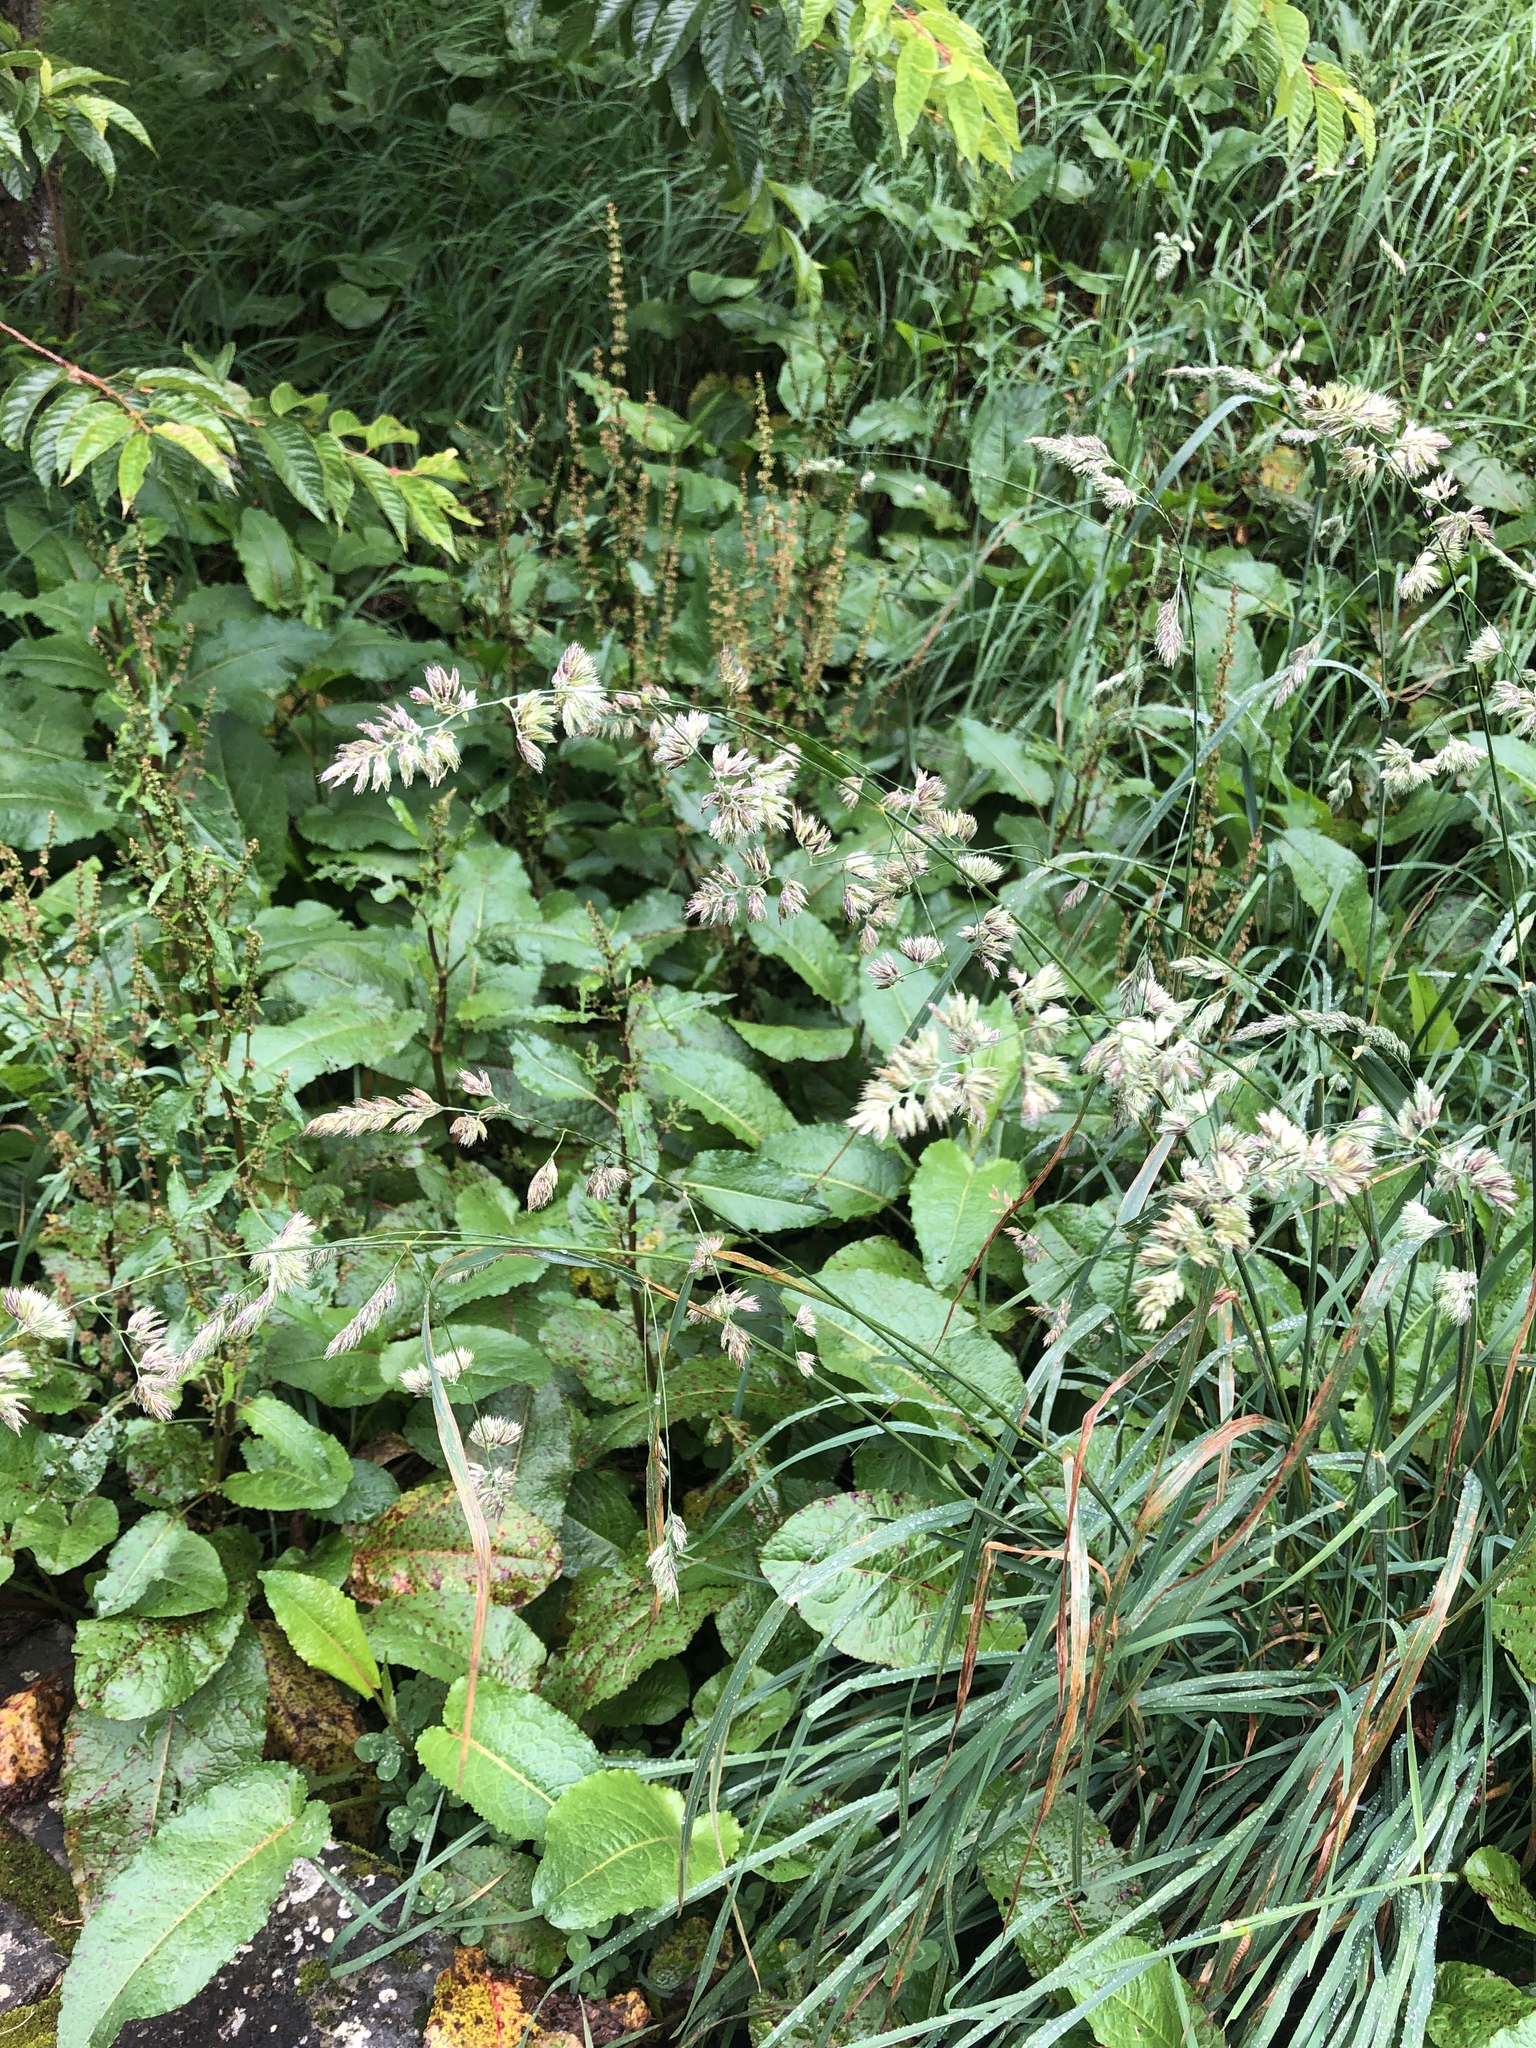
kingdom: Plantae
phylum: Tracheophyta
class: Liliopsida
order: Poales
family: Poaceae
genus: Dactylis
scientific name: Dactylis glomerata
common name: Orchardgrass
